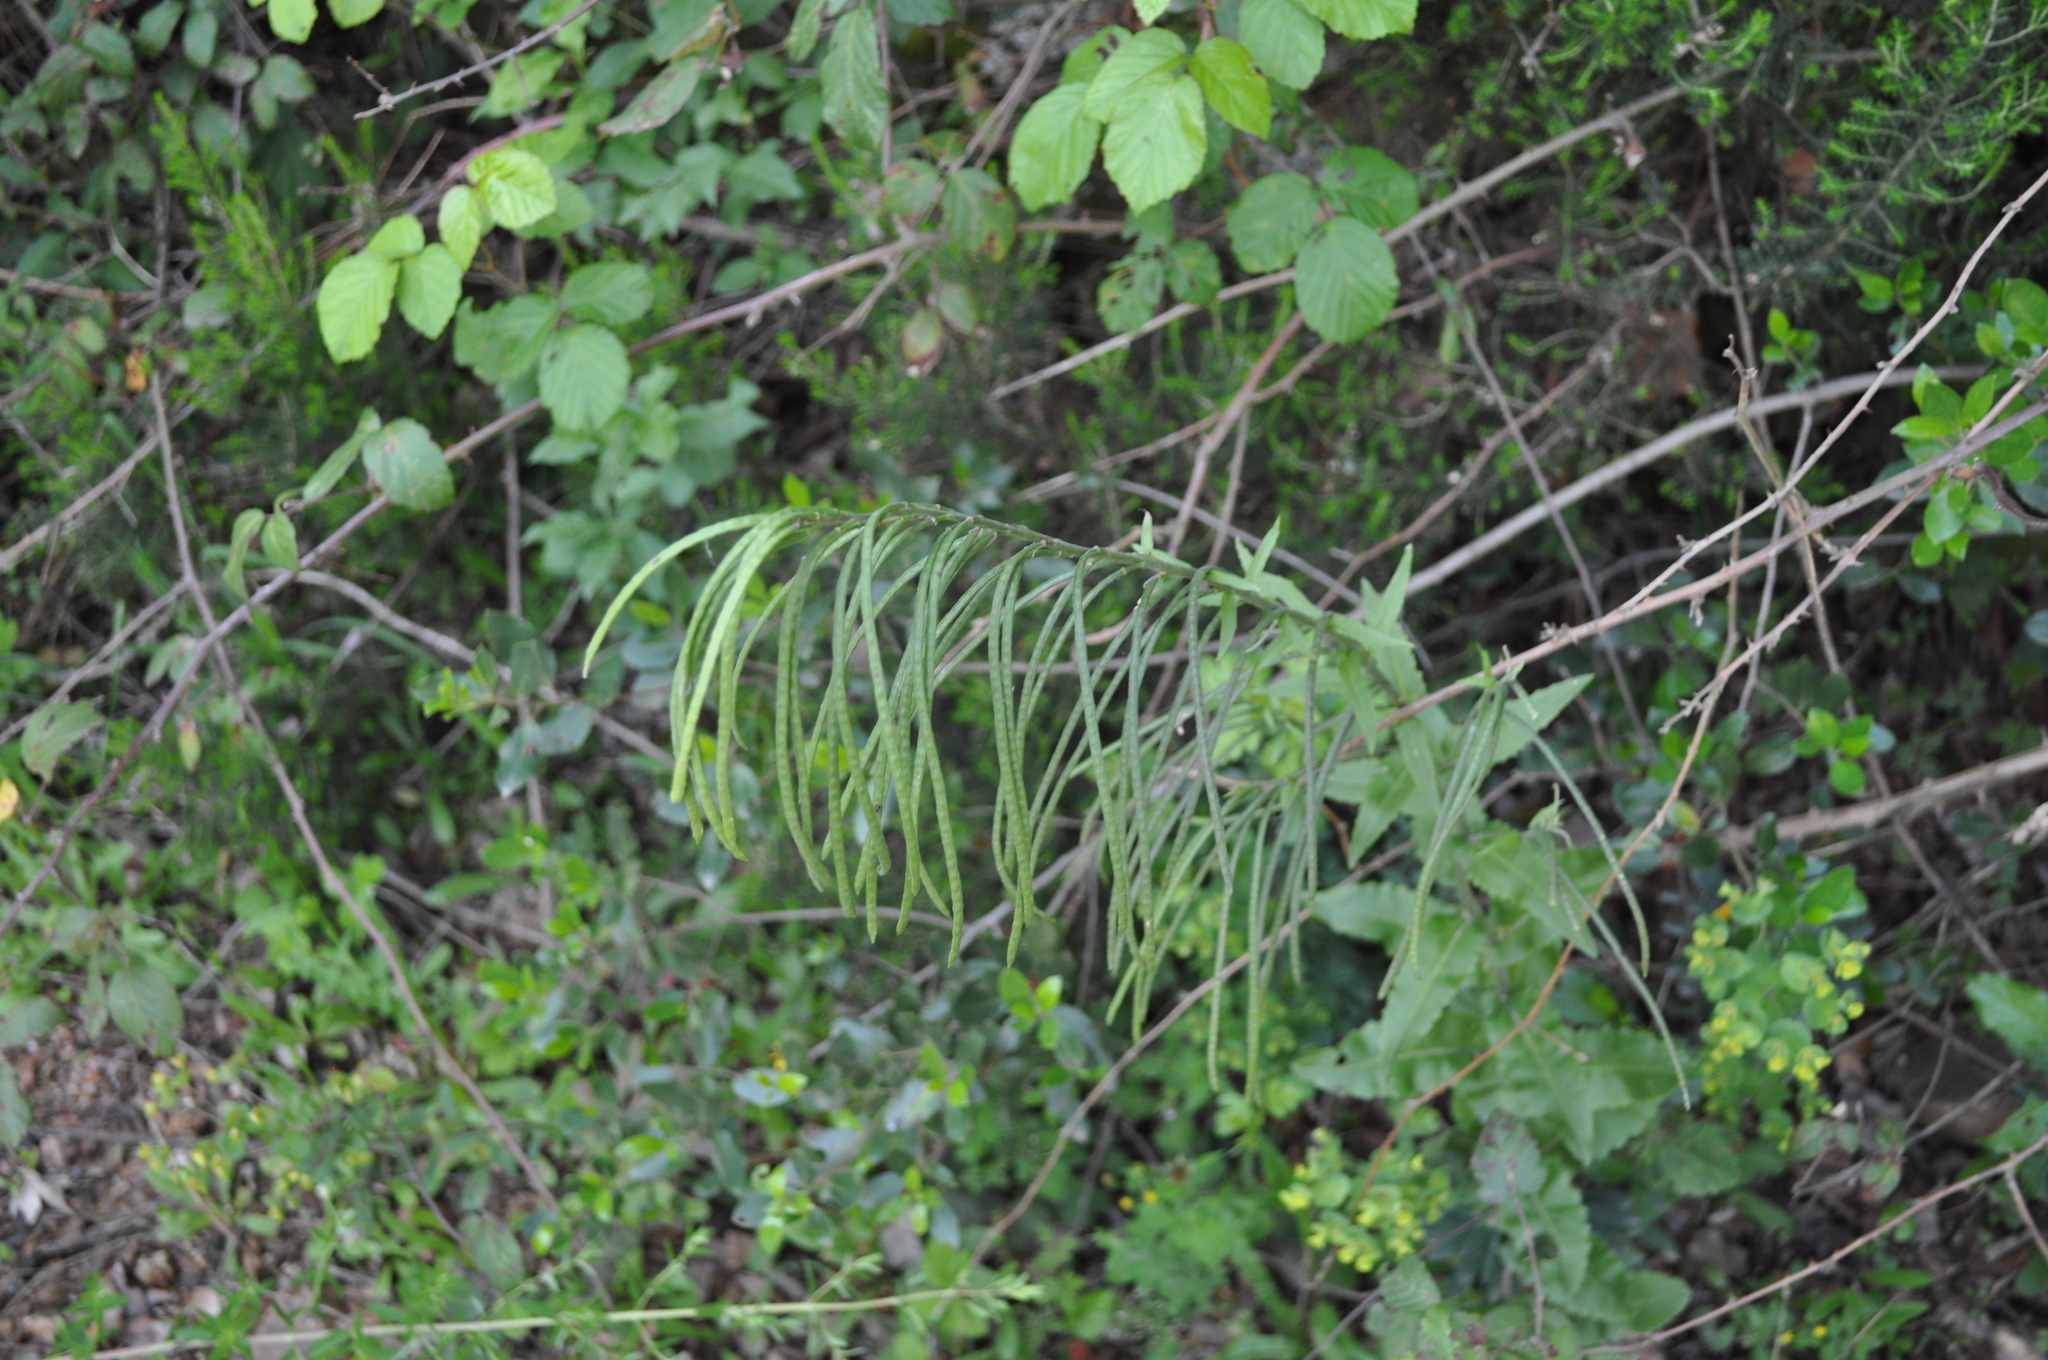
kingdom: Plantae
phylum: Tracheophyta
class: Magnoliopsida
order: Brassicales
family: Brassicaceae
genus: Pseudoturritis
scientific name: Pseudoturritis turrita
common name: Tower cress
